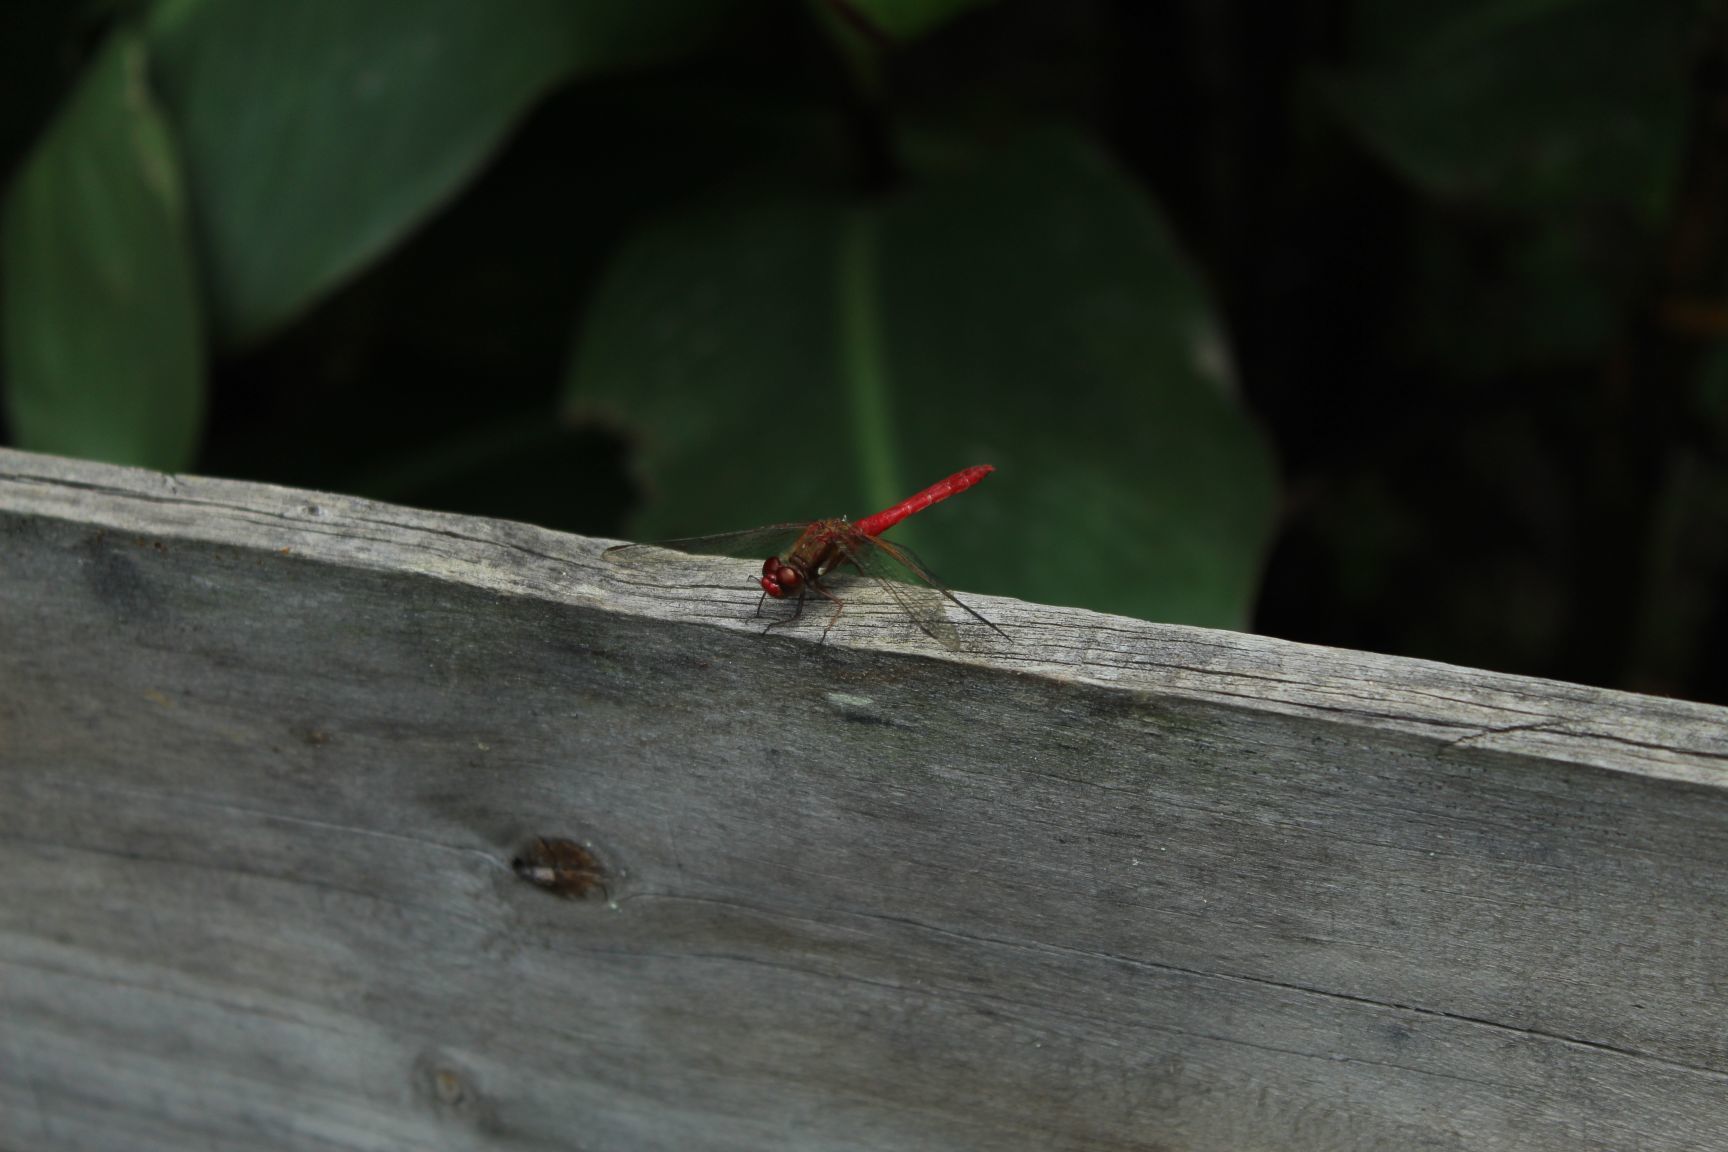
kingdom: Animalia
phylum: Arthropoda
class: Insecta
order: Odonata
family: Libellulidae
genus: Sympetrum
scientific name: Sympetrum gilvum
